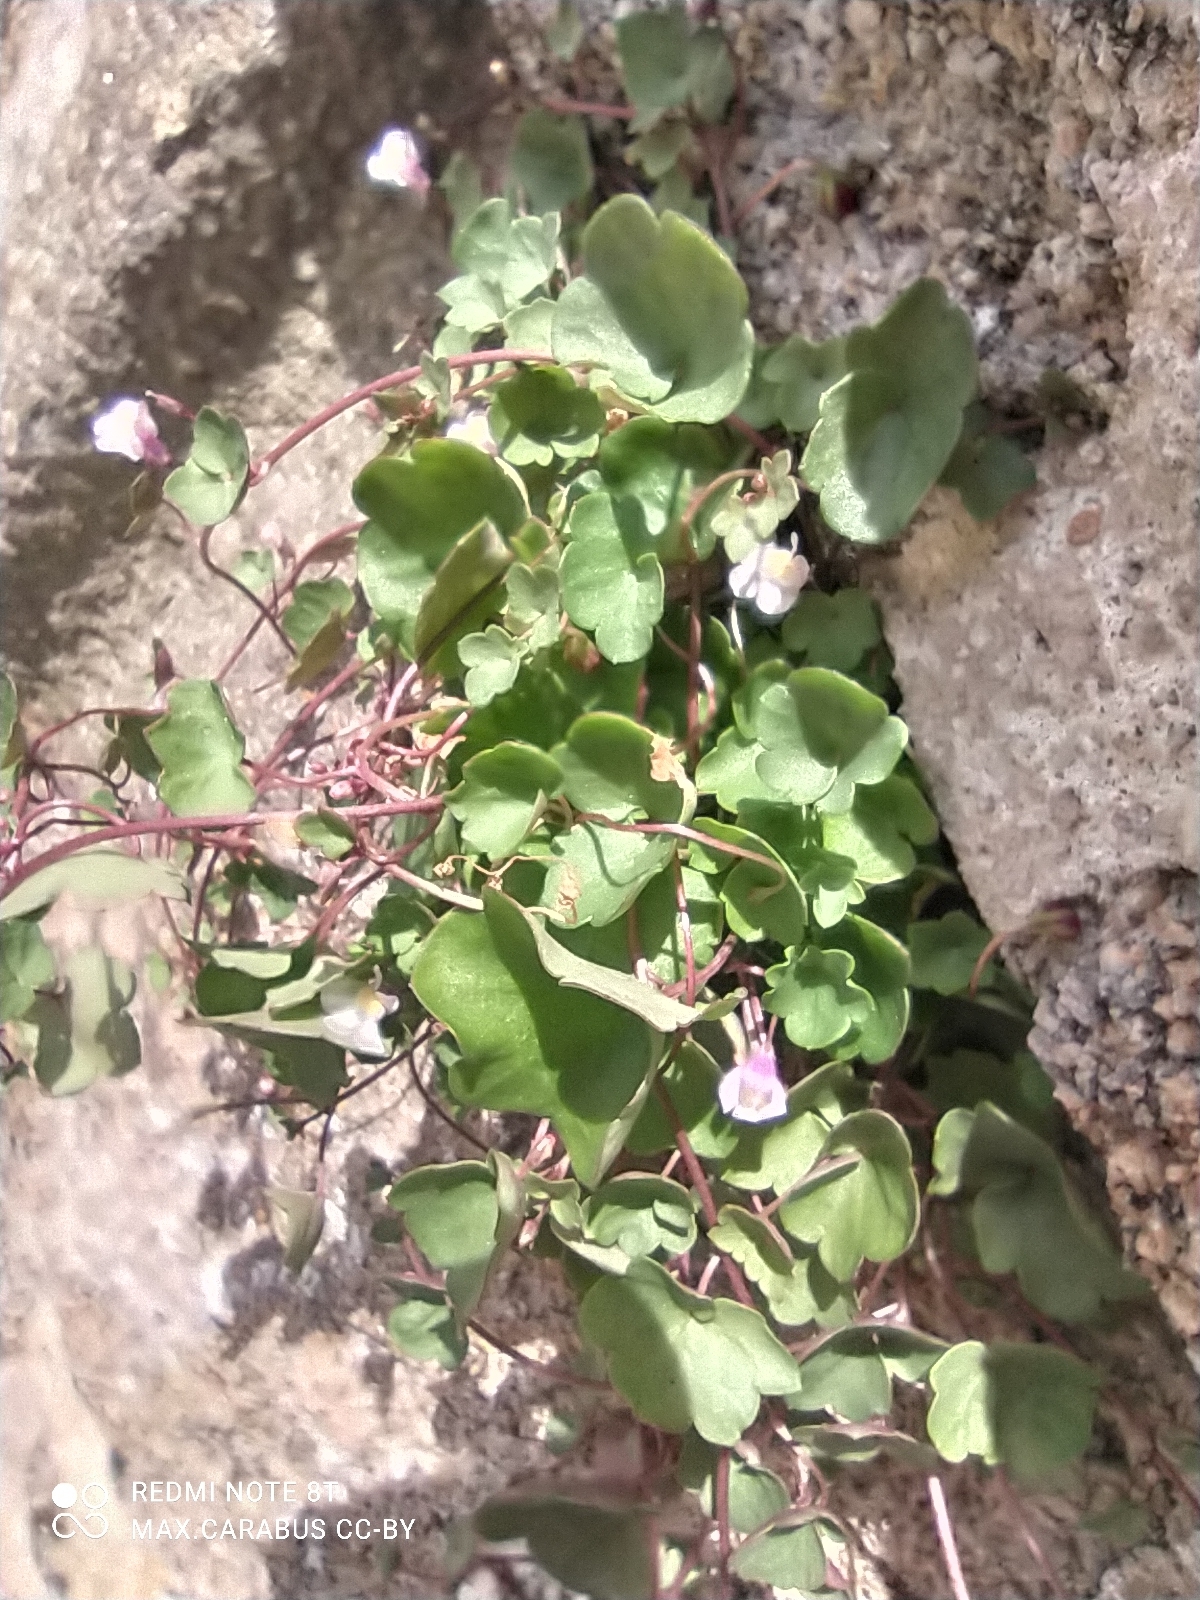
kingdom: Plantae
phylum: Tracheophyta
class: Magnoliopsida
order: Lamiales
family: Plantaginaceae
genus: Cymbalaria
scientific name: Cymbalaria muralis
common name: Ivy-leaved toadflax
